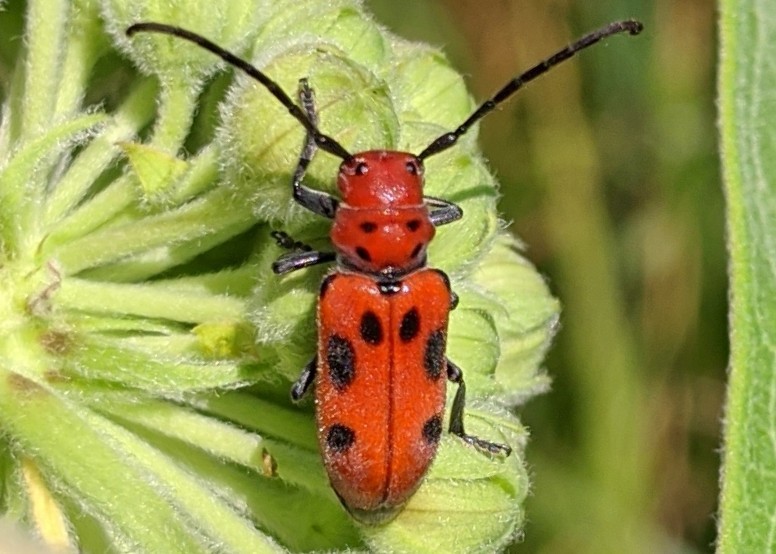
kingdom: Animalia
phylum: Arthropoda
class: Insecta
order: Coleoptera
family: Cerambycidae
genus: Tetraopes
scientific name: Tetraopes tetrophthalmus
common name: Red milkweed beetle
